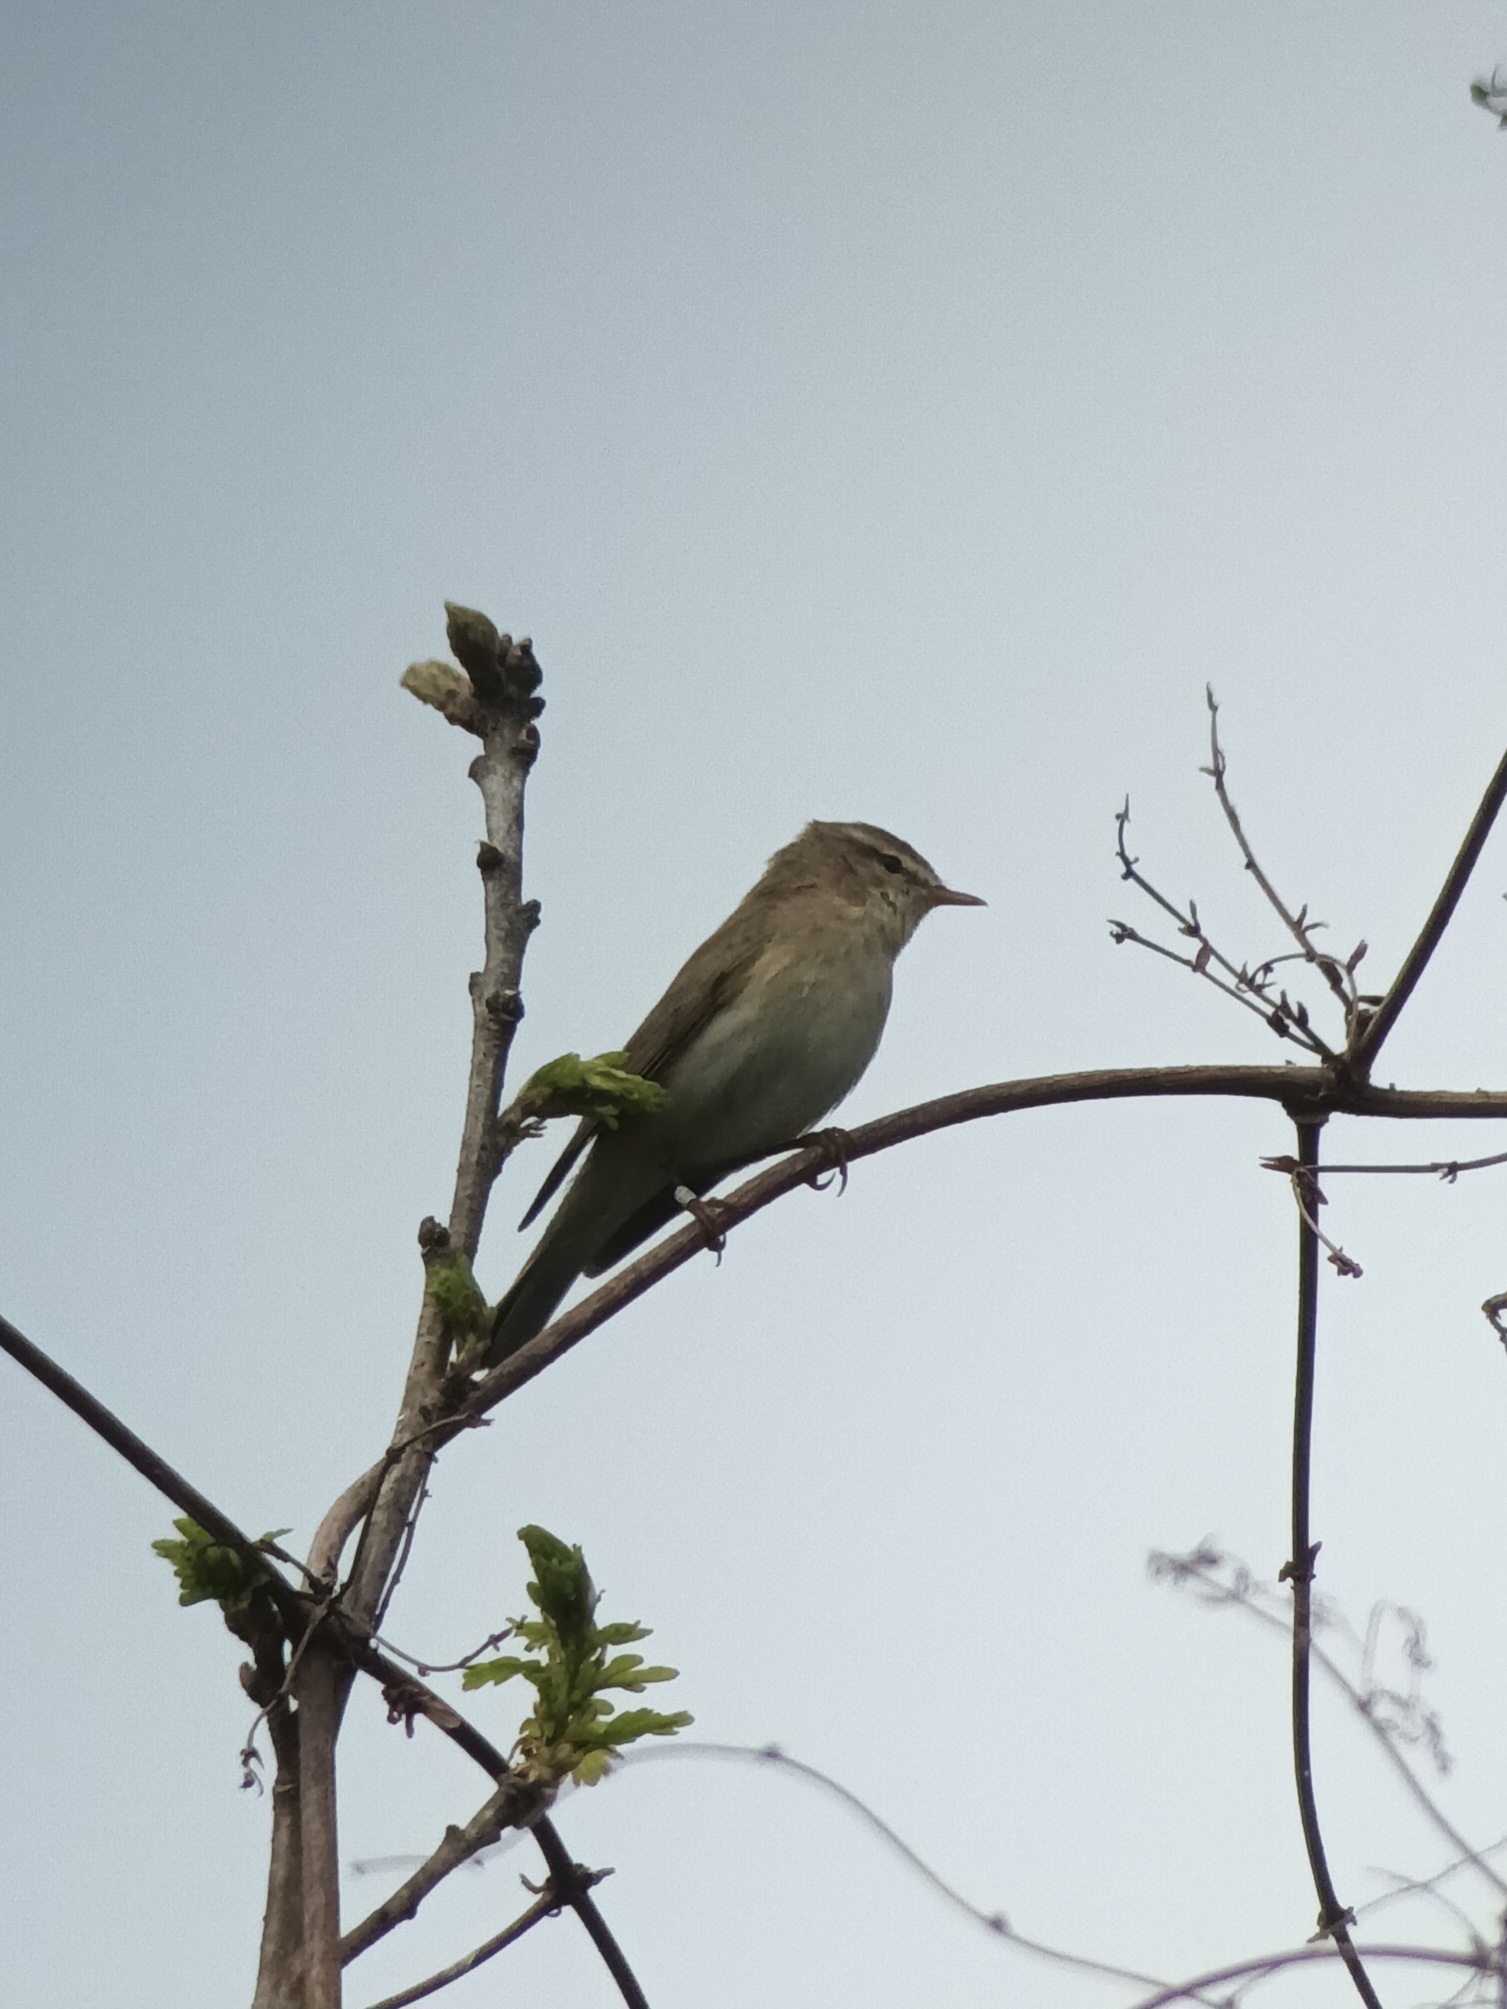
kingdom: Animalia
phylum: Chordata
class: Aves
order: Passeriformes
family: Phylloscopidae
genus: Phylloscopus
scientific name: Phylloscopus trochilus
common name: Willow warbler
